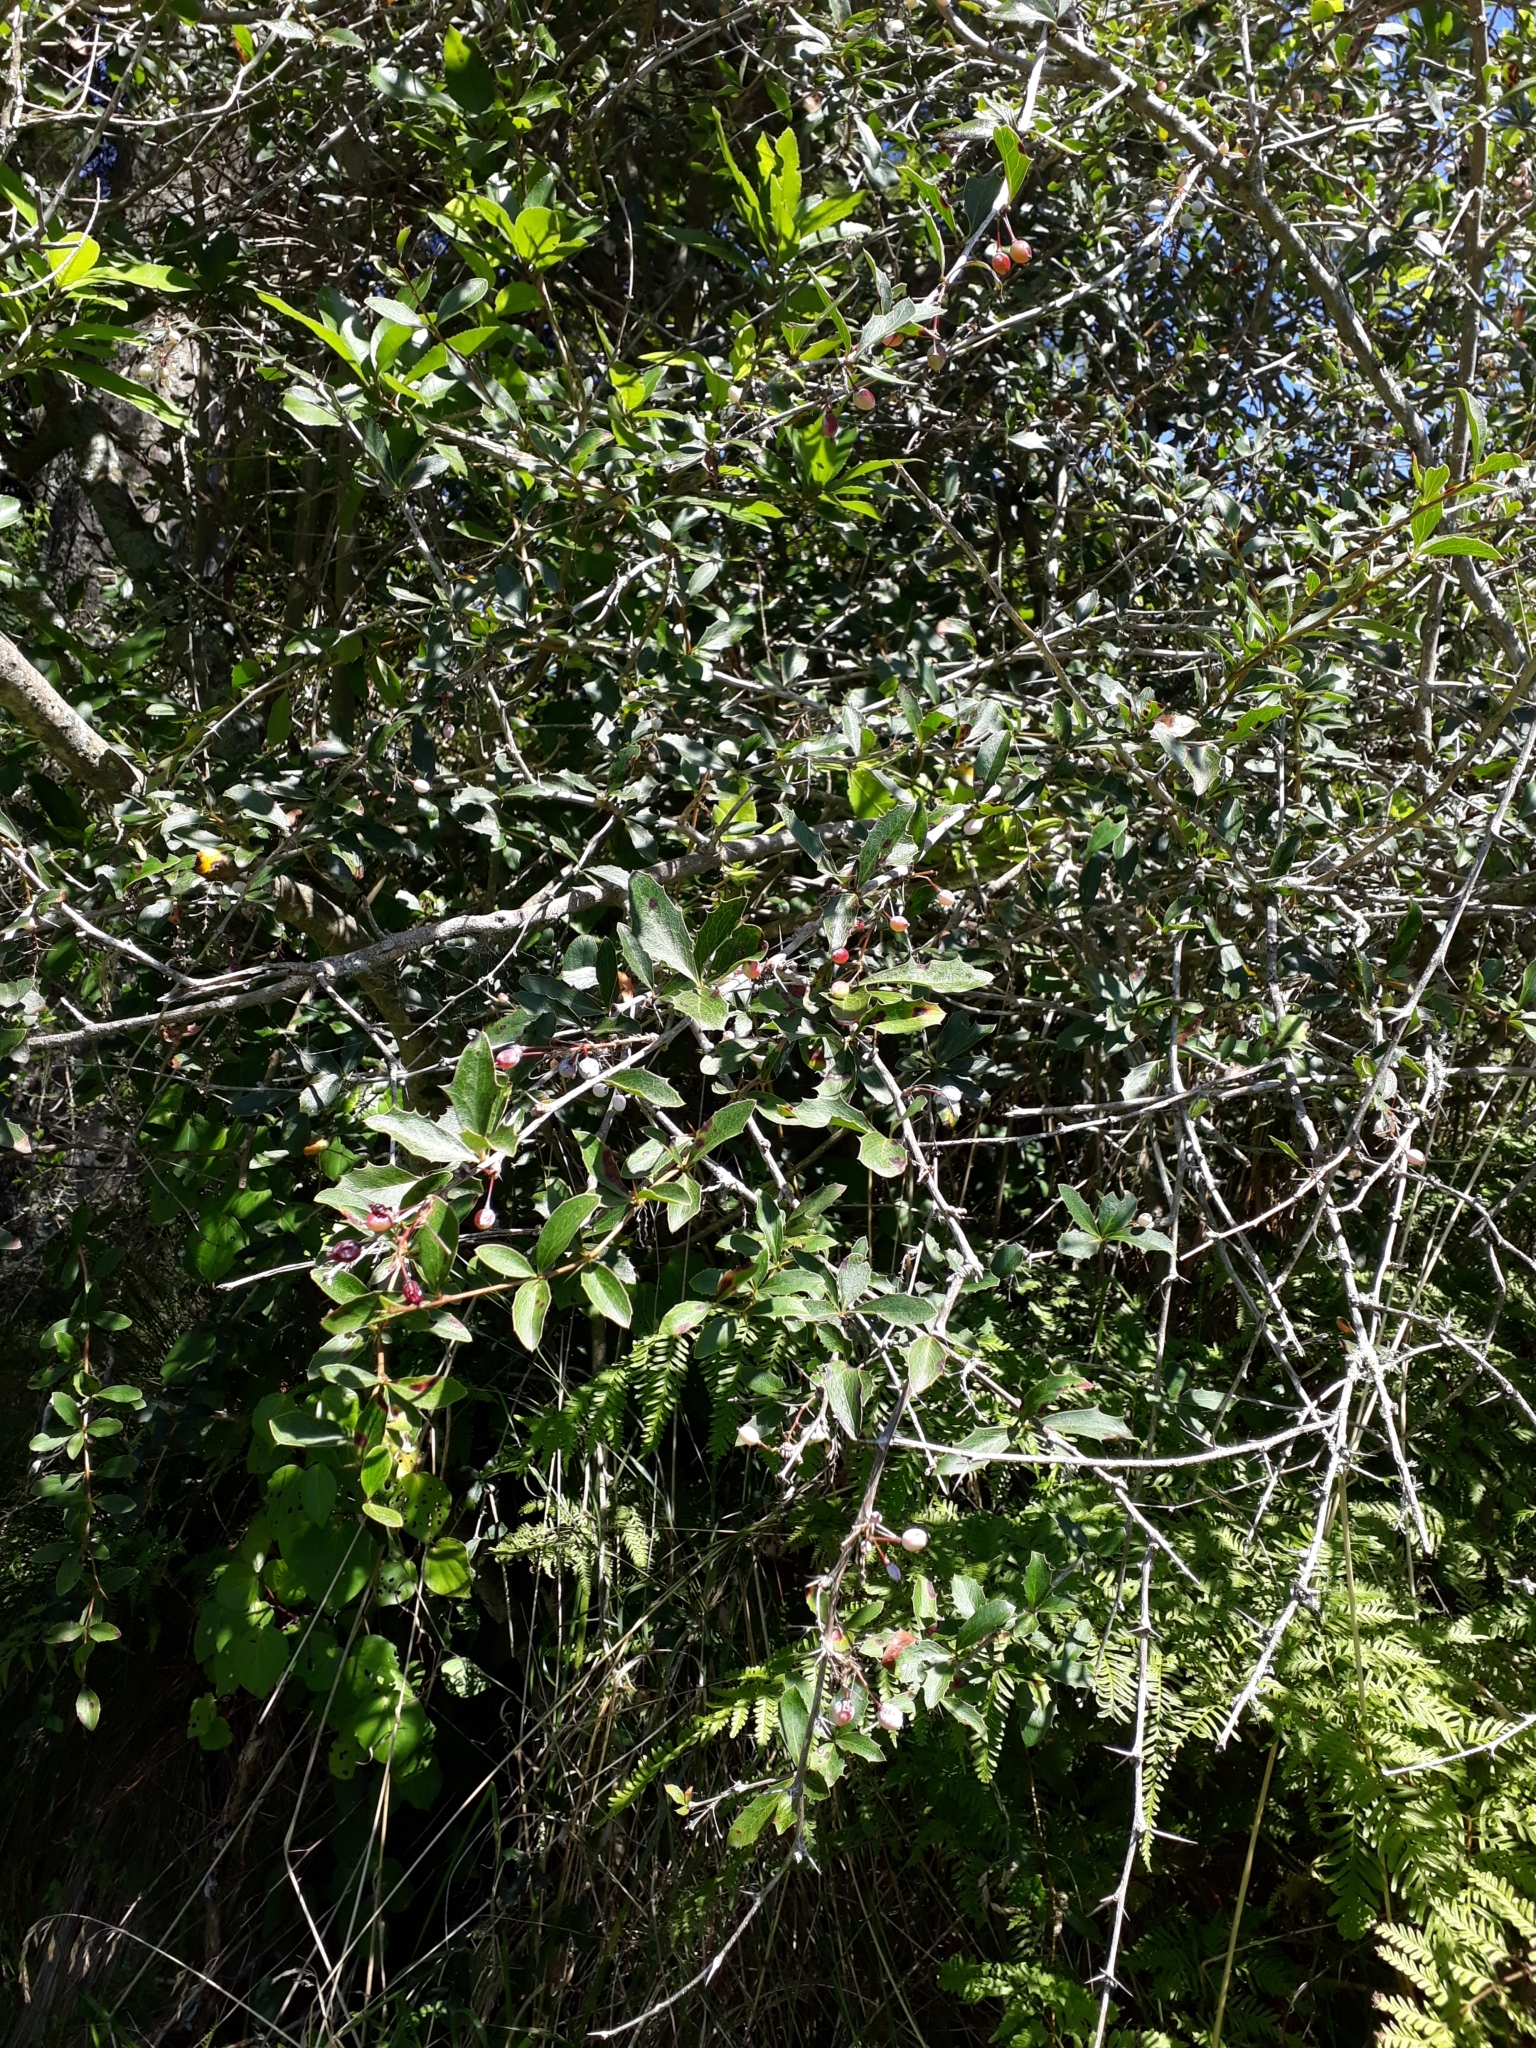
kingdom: Plantae
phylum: Tracheophyta
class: Magnoliopsida
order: Ranunculales
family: Berberidaceae
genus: Berberis
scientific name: Berberis glaucocarpa
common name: Great barberry
